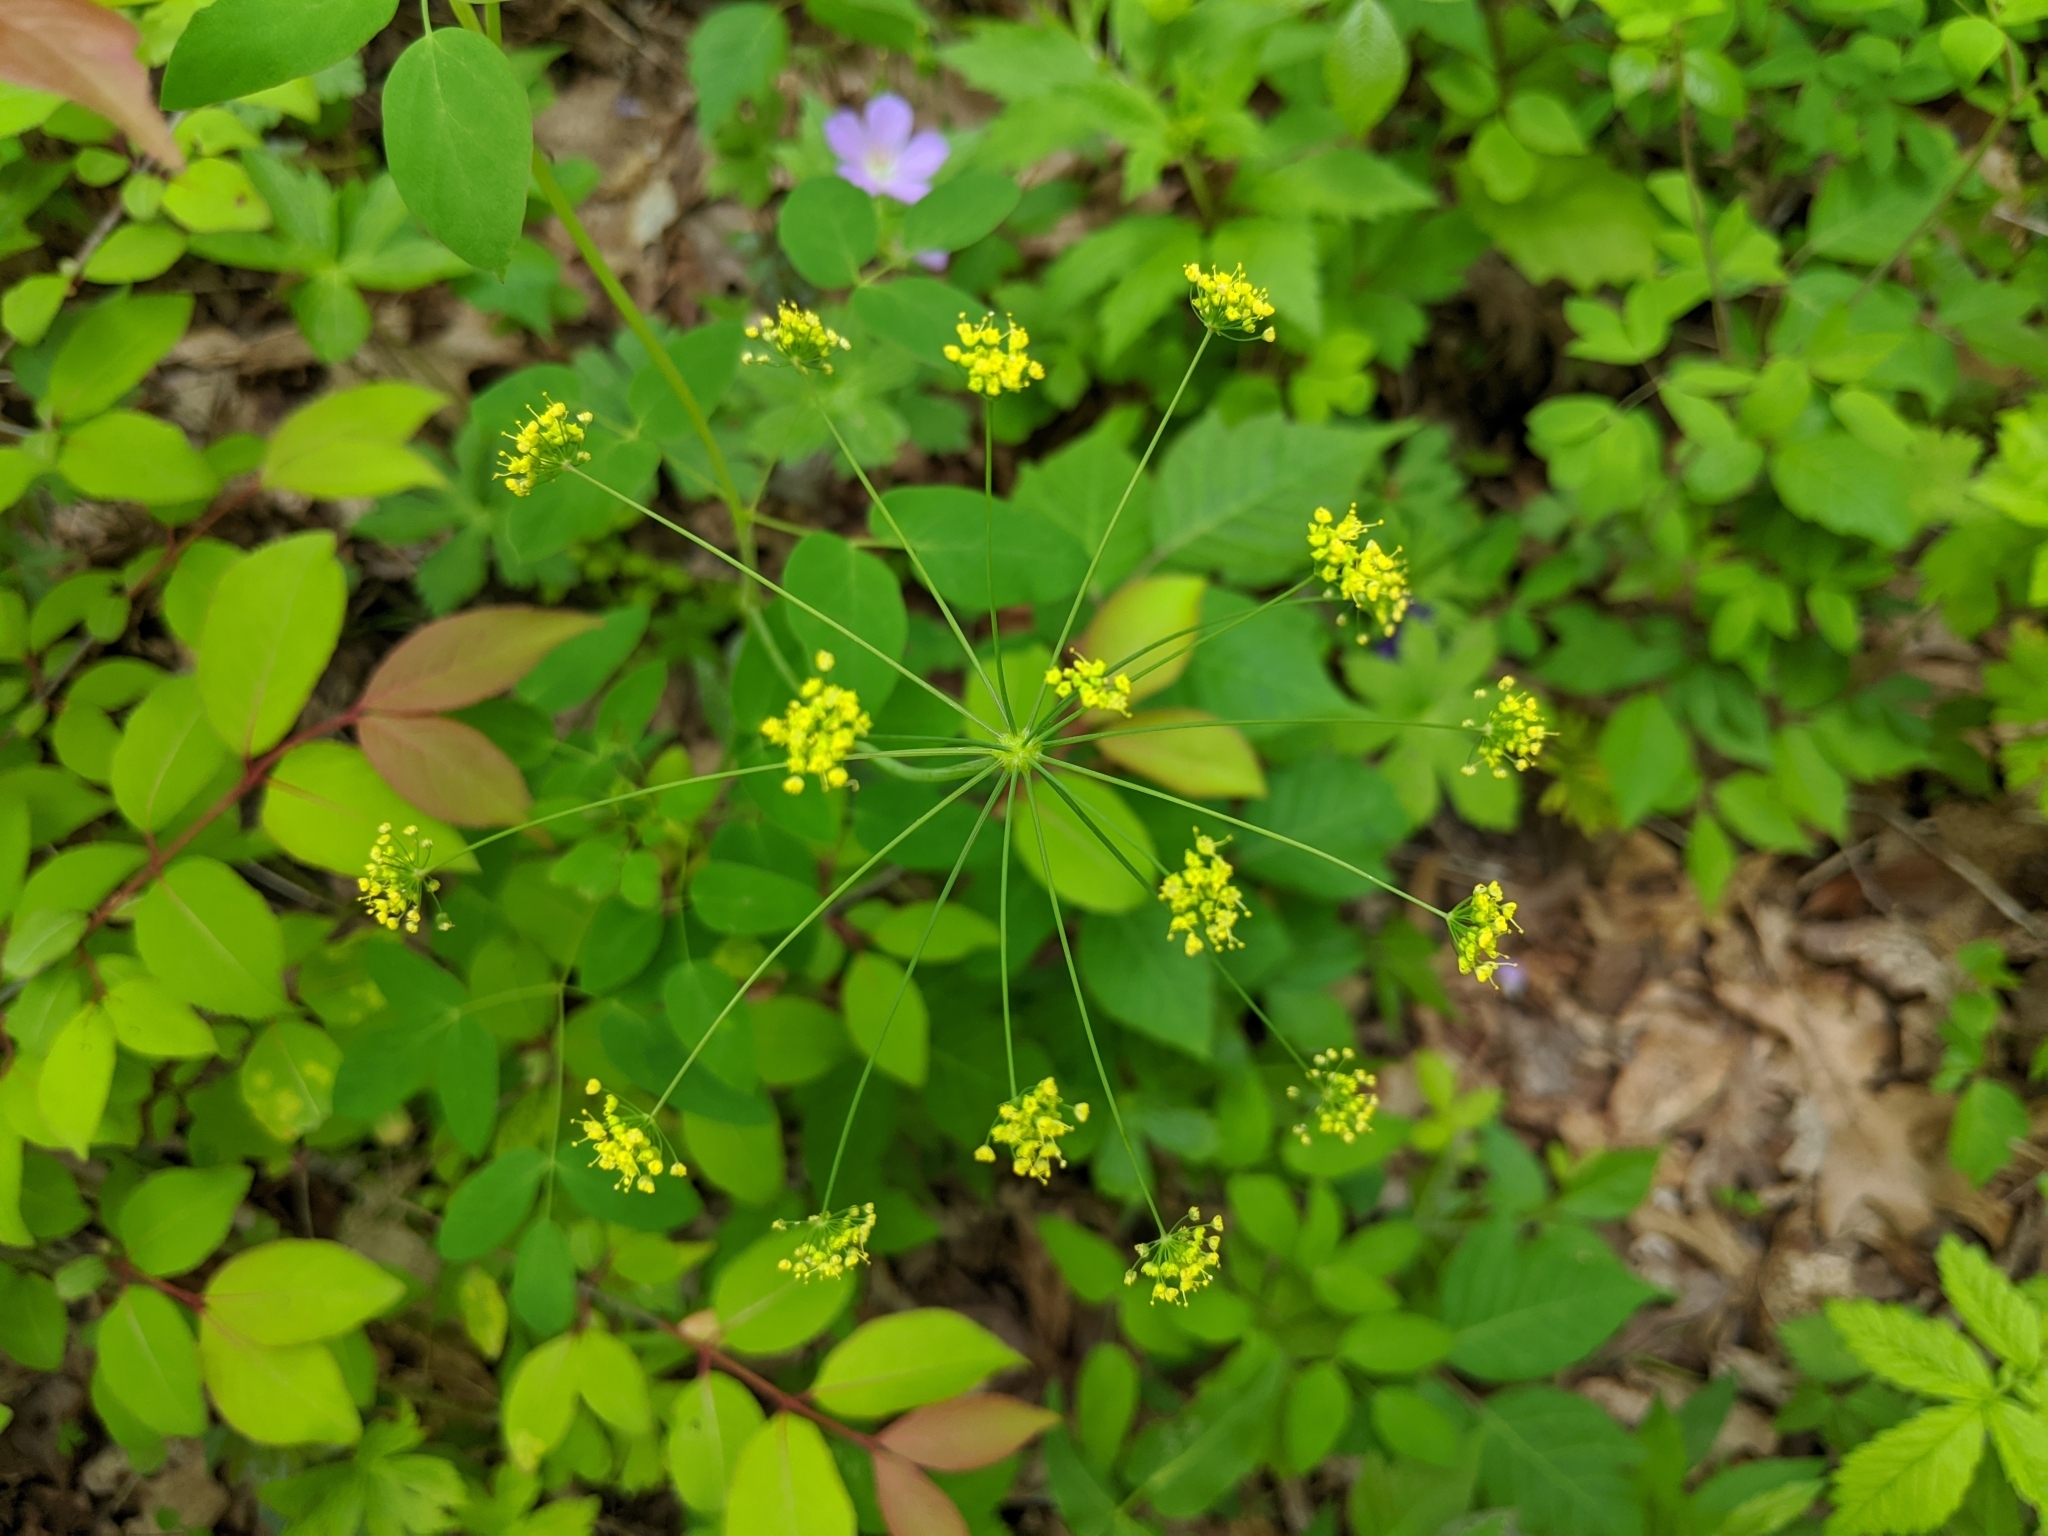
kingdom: Plantae
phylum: Tracheophyta
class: Magnoliopsida
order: Apiales
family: Apiaceae
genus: Taenidia
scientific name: Taenidia integerrima
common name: Golden alexander
